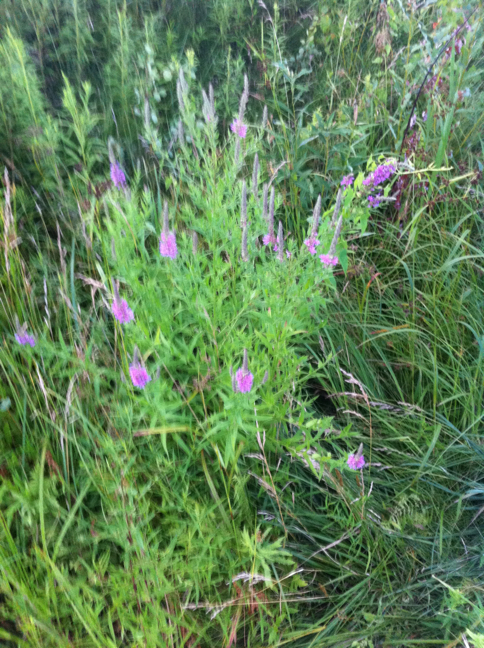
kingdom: Plantae
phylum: Tracheophyta
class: Magnoliopsida
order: Myrtales
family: Lythraceae
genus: Lythrum
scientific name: Lythrum salicaria
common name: Purple loosestrife
